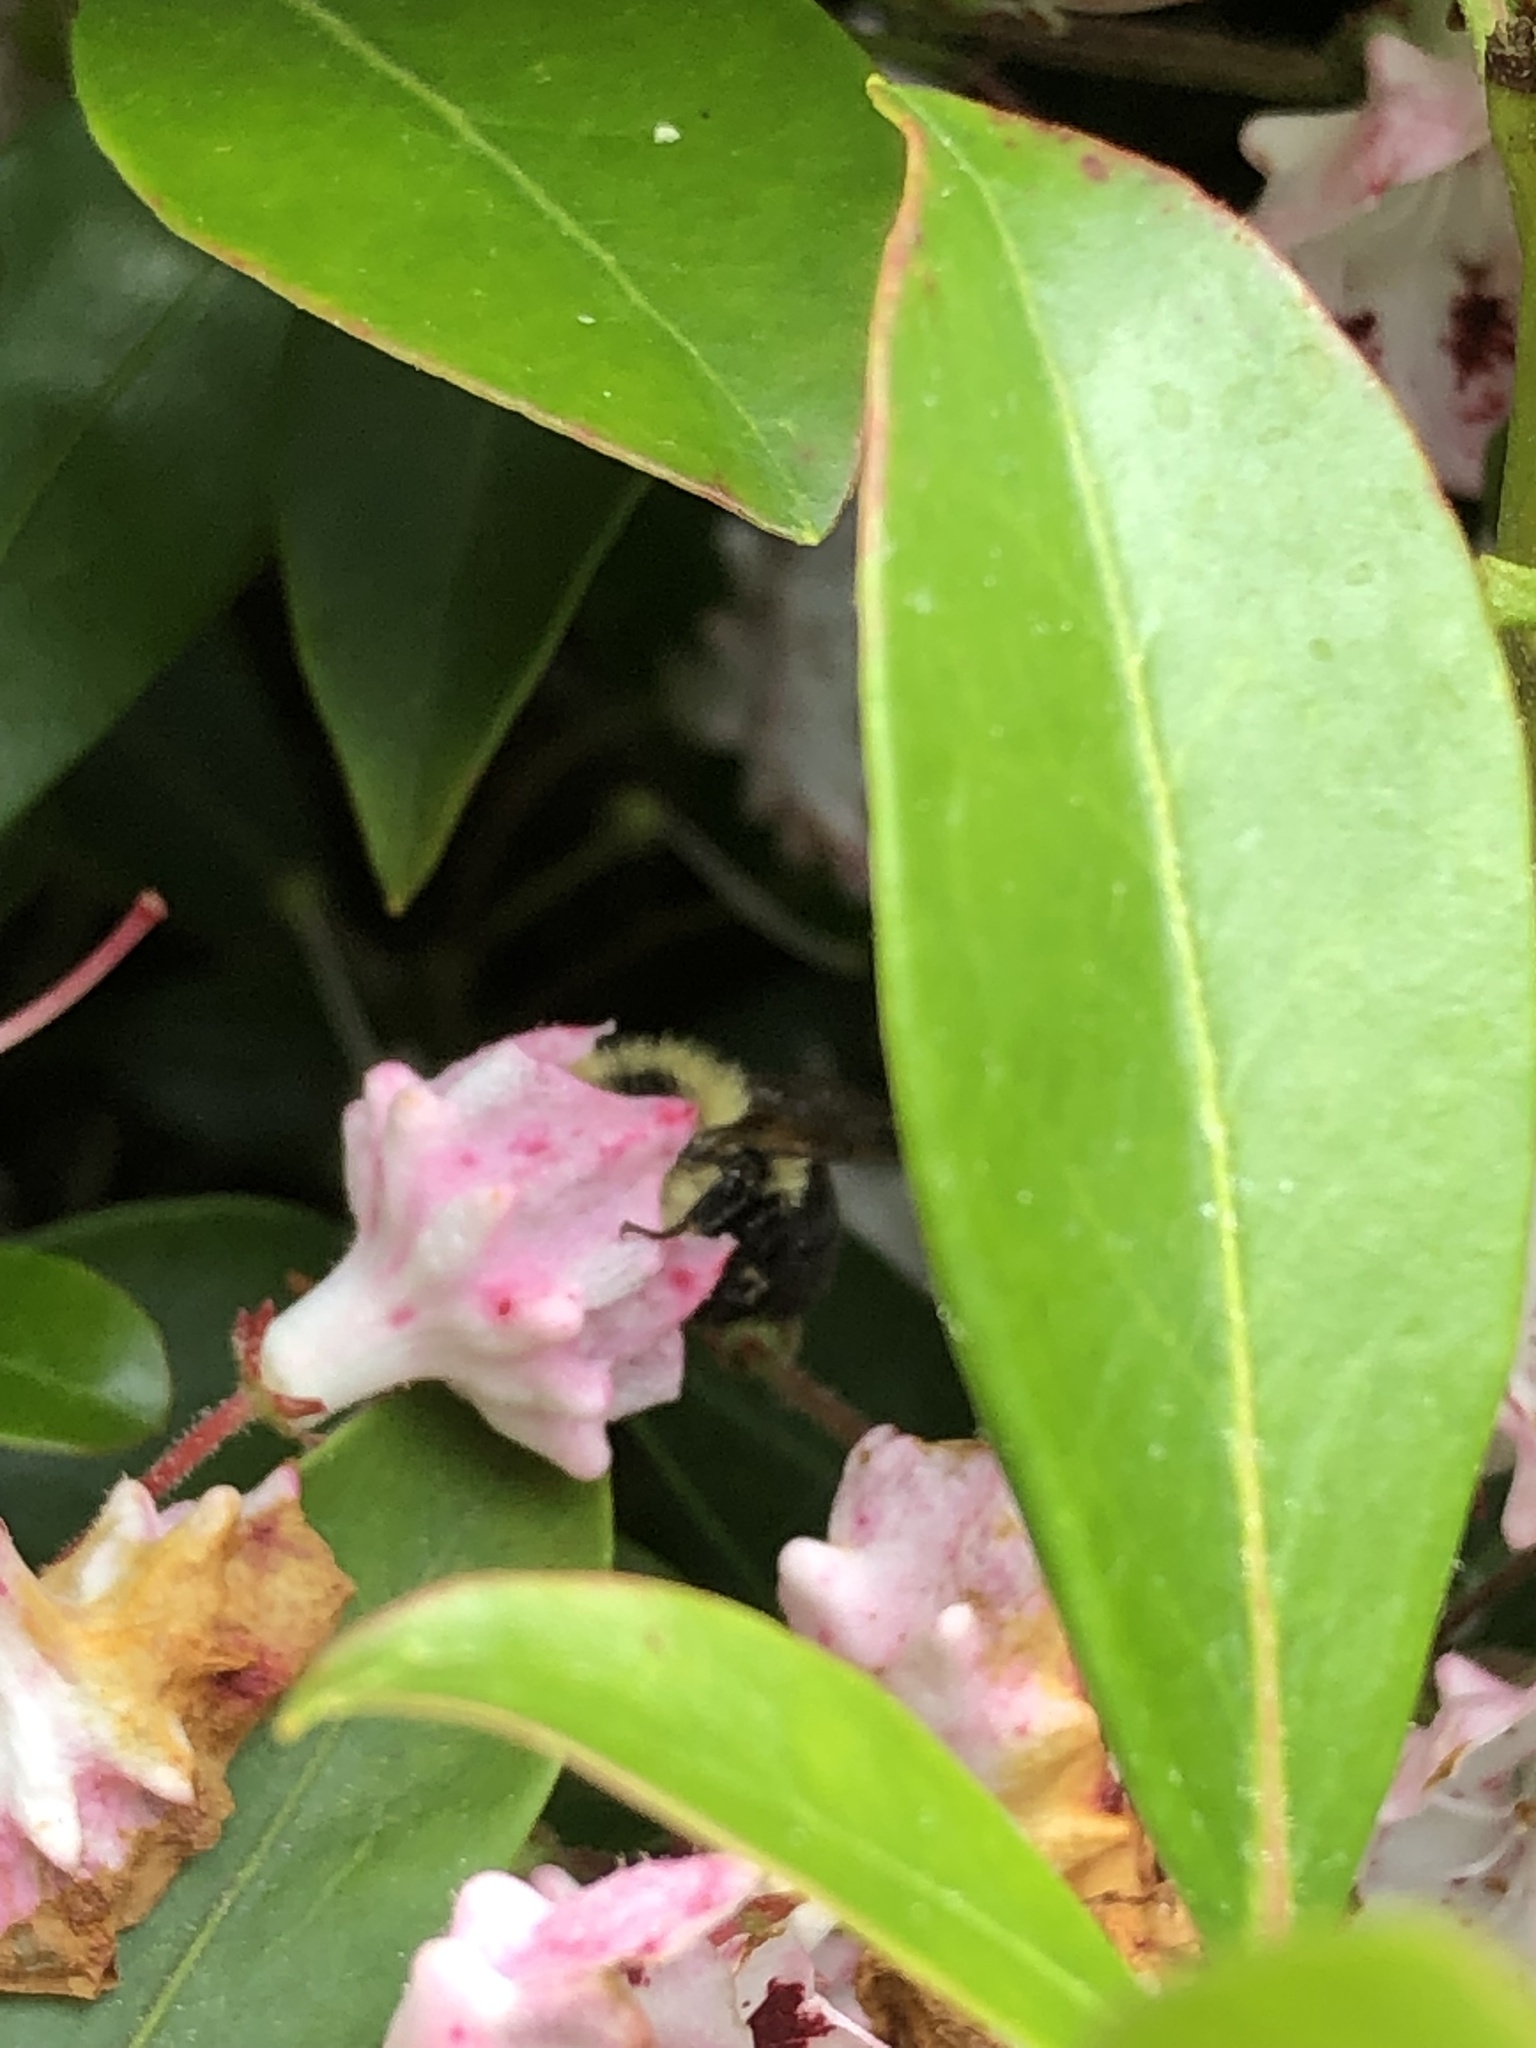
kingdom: Animalia
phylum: Arthropoda
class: Insecta
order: Hymenoptera
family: Apidae
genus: Bombus
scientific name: Bombus bimaculatus
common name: Two-spotted bumble bee
